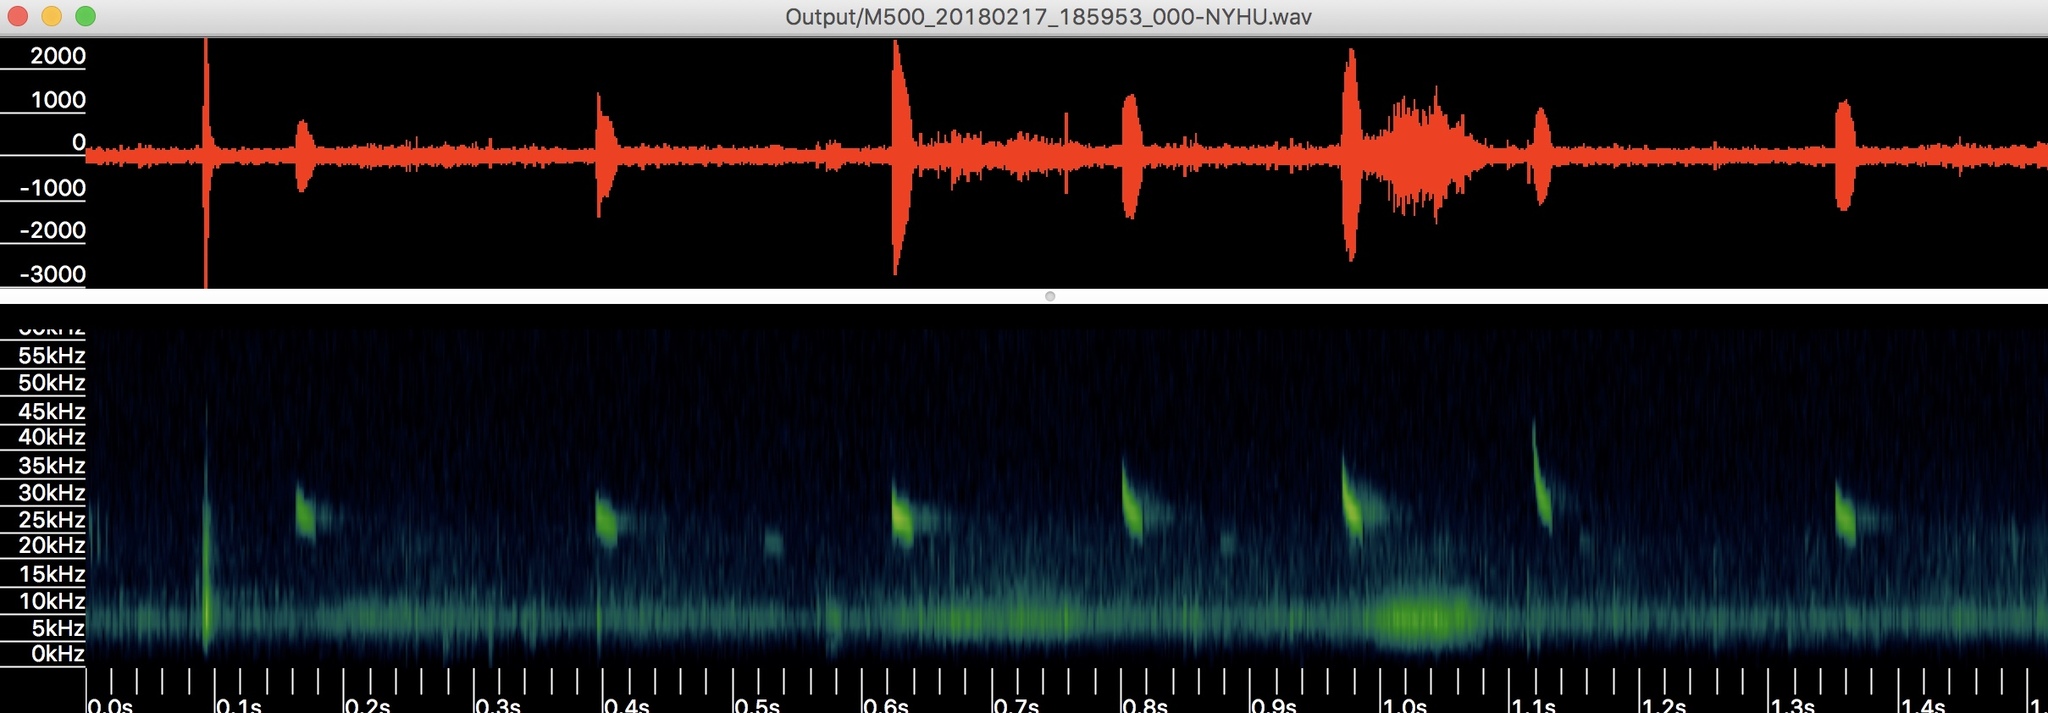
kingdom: Animalia
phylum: Chordata
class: Mammalia
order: Chiroptera
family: Vespertilionidae
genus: Nycticeius
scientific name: Nycticeius humeralis
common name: Evening bat
